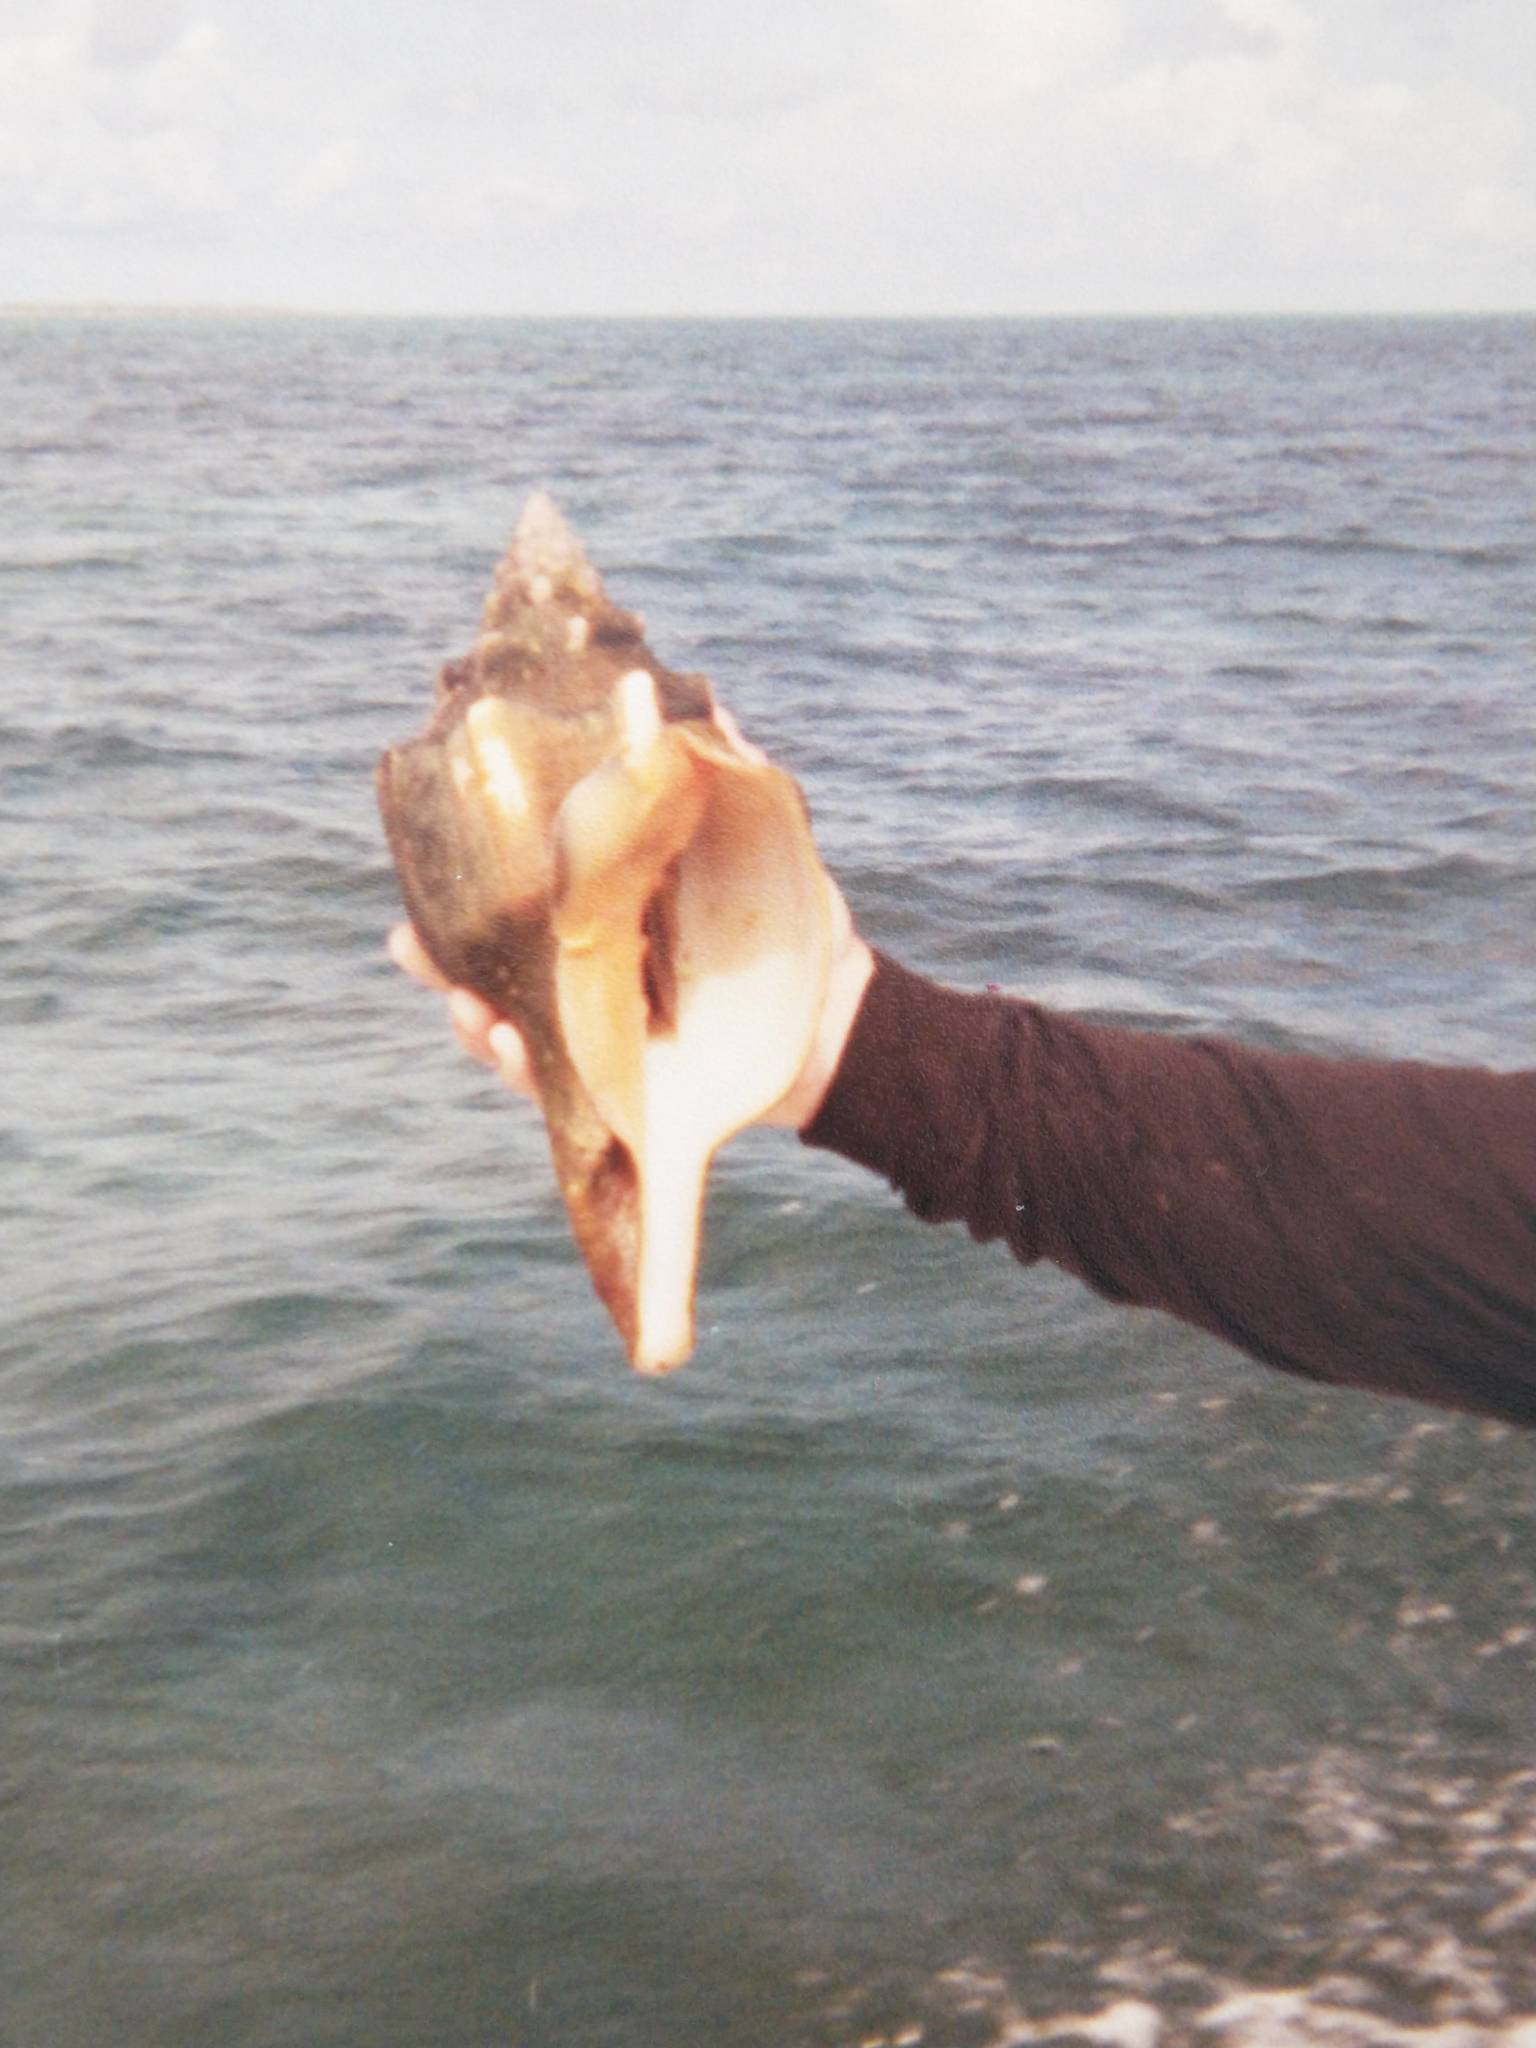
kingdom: Animalia
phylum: Mollusca
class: Gastropoda
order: Neogastropoda
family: Turbinellidae
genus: Turbinella
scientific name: Turbinella angulata
